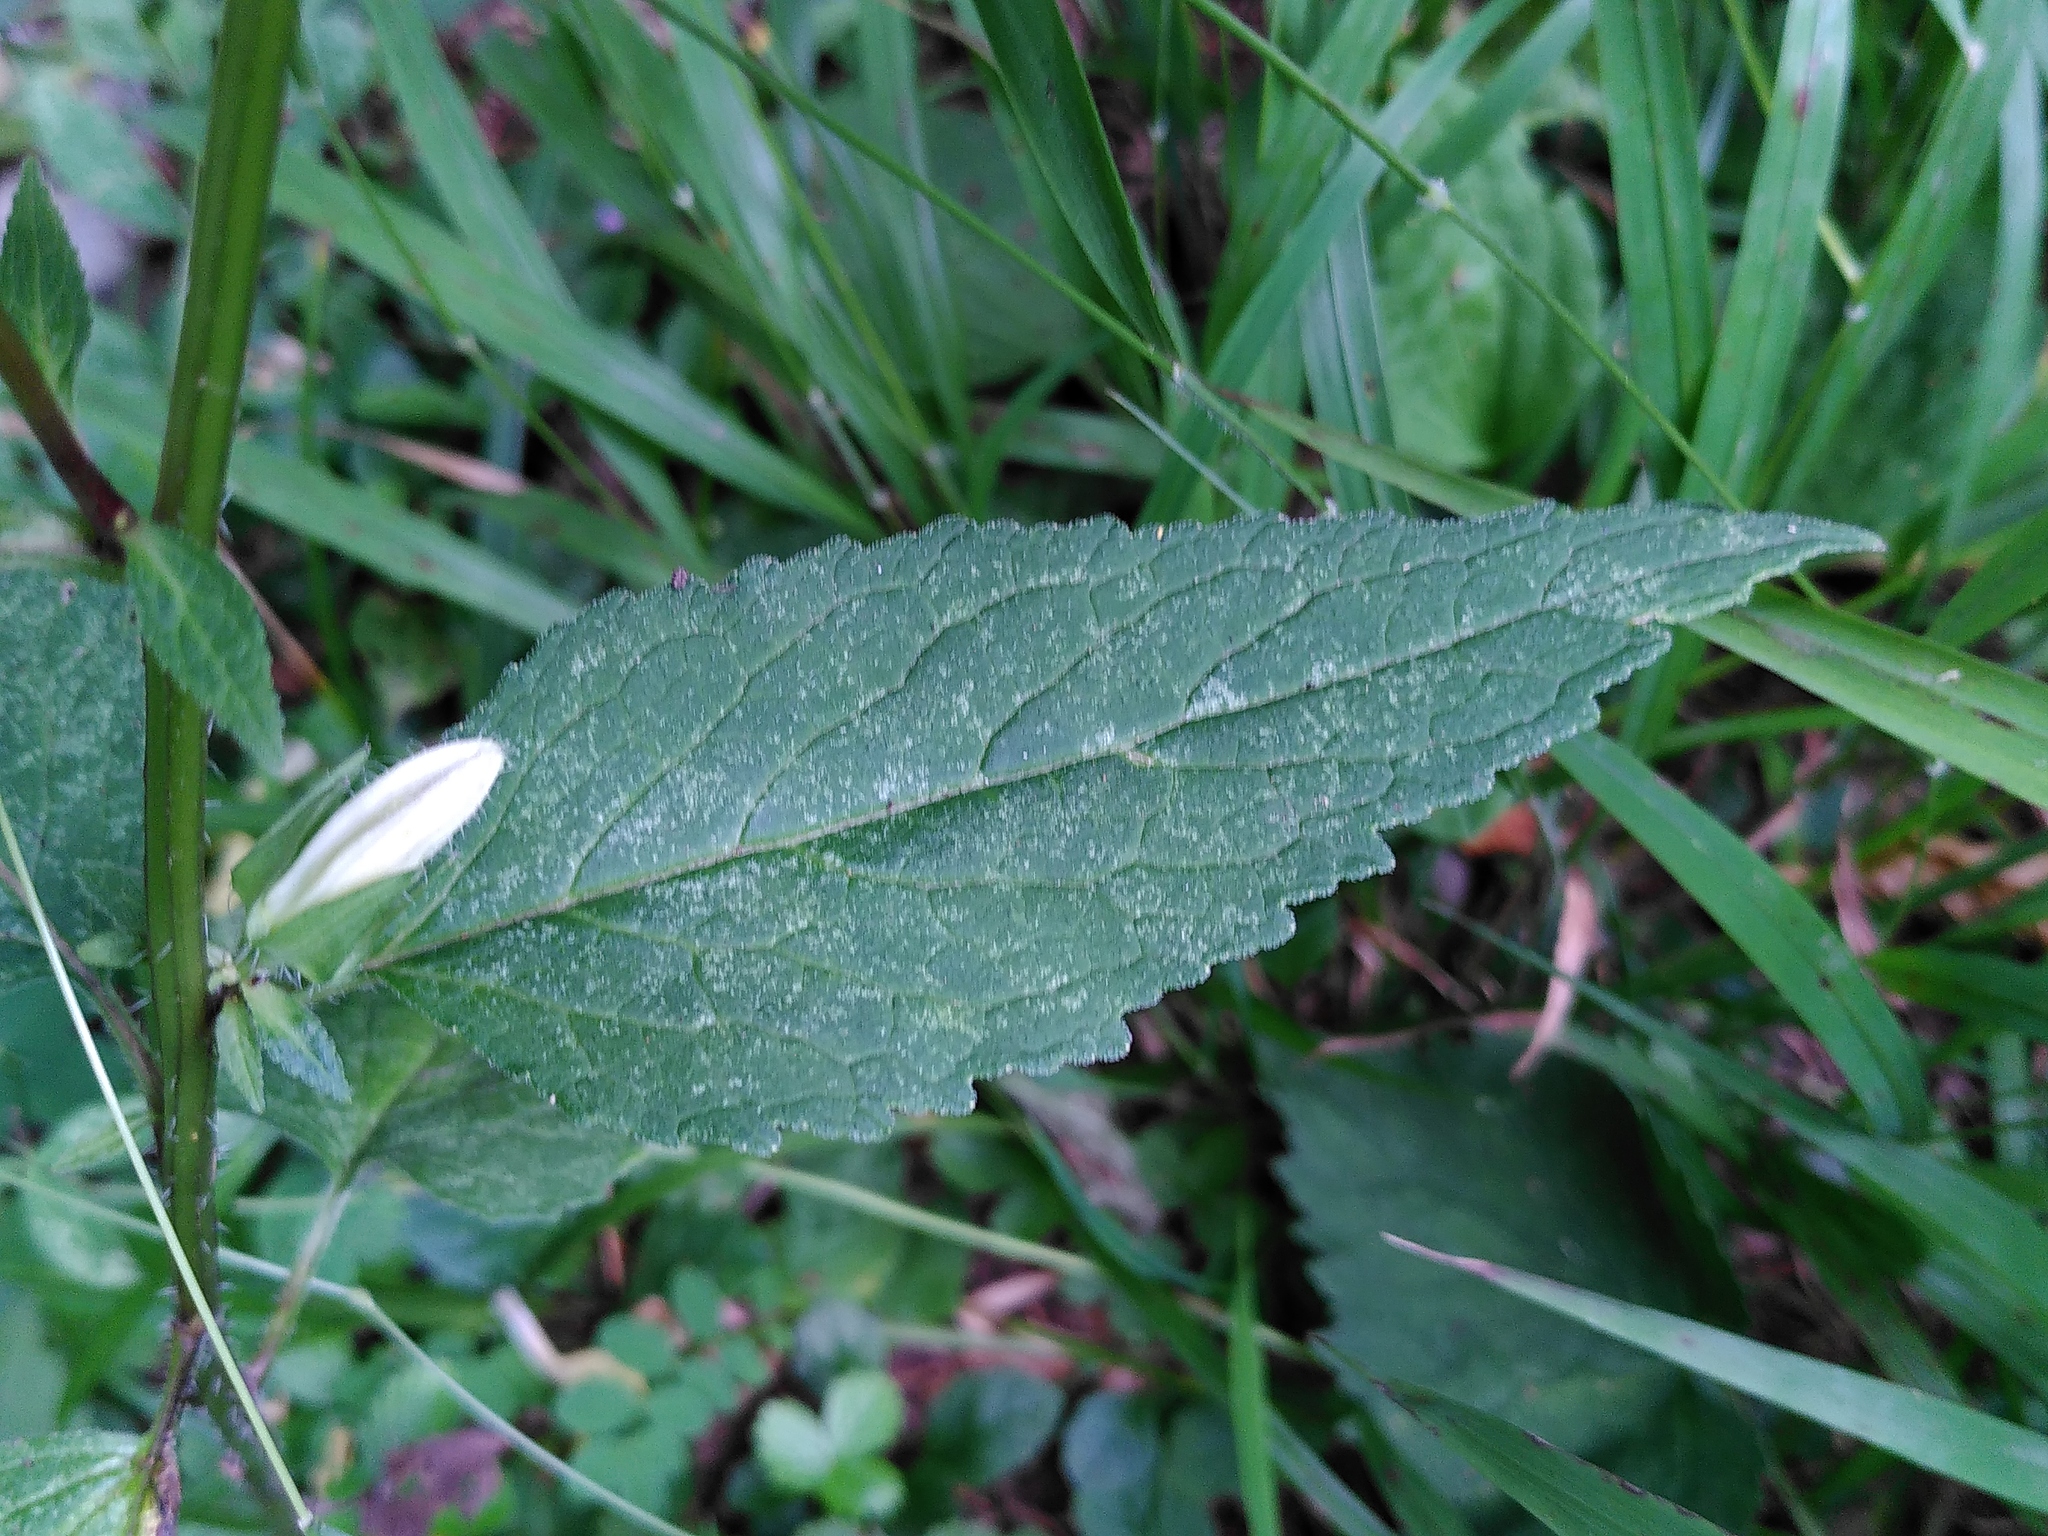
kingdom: Plantae
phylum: Tracheophyta
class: Magnoliopsida
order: Asterales
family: Campanulaceae
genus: Campanula
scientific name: Campanula trachelium
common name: Nettle-leaved bellflower
